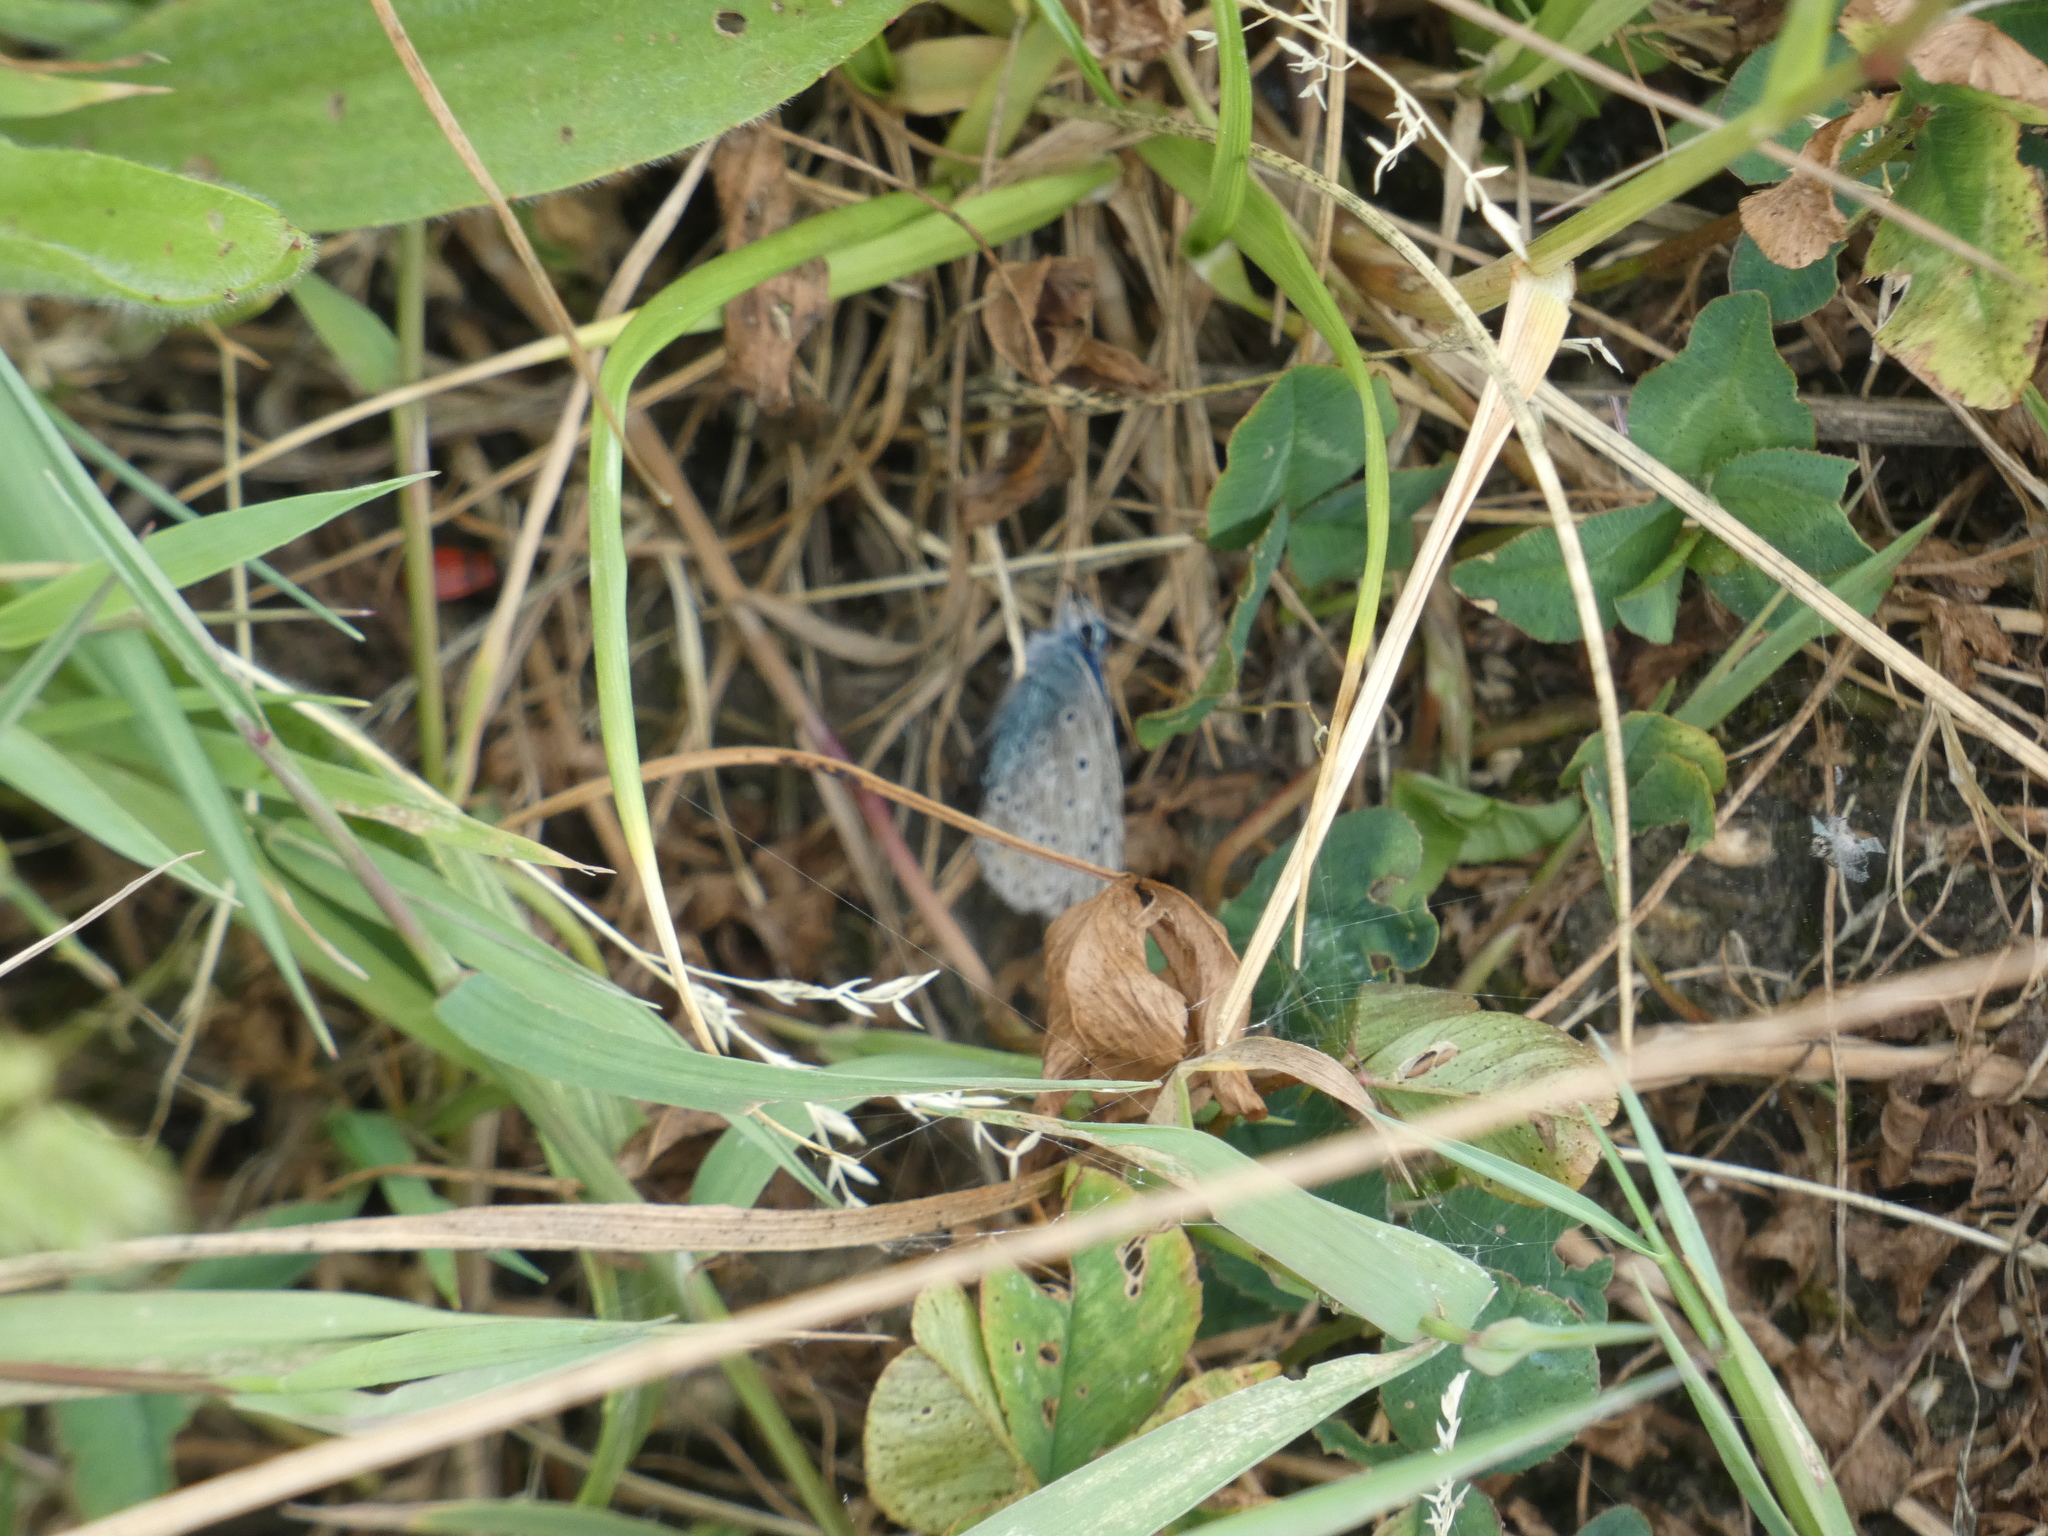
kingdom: Animalia
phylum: Arthropoda
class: Insecta
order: Lepidoptera
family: Lycaenidae
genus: Polyommatus
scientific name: Polyommatus icarus
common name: Common blue
